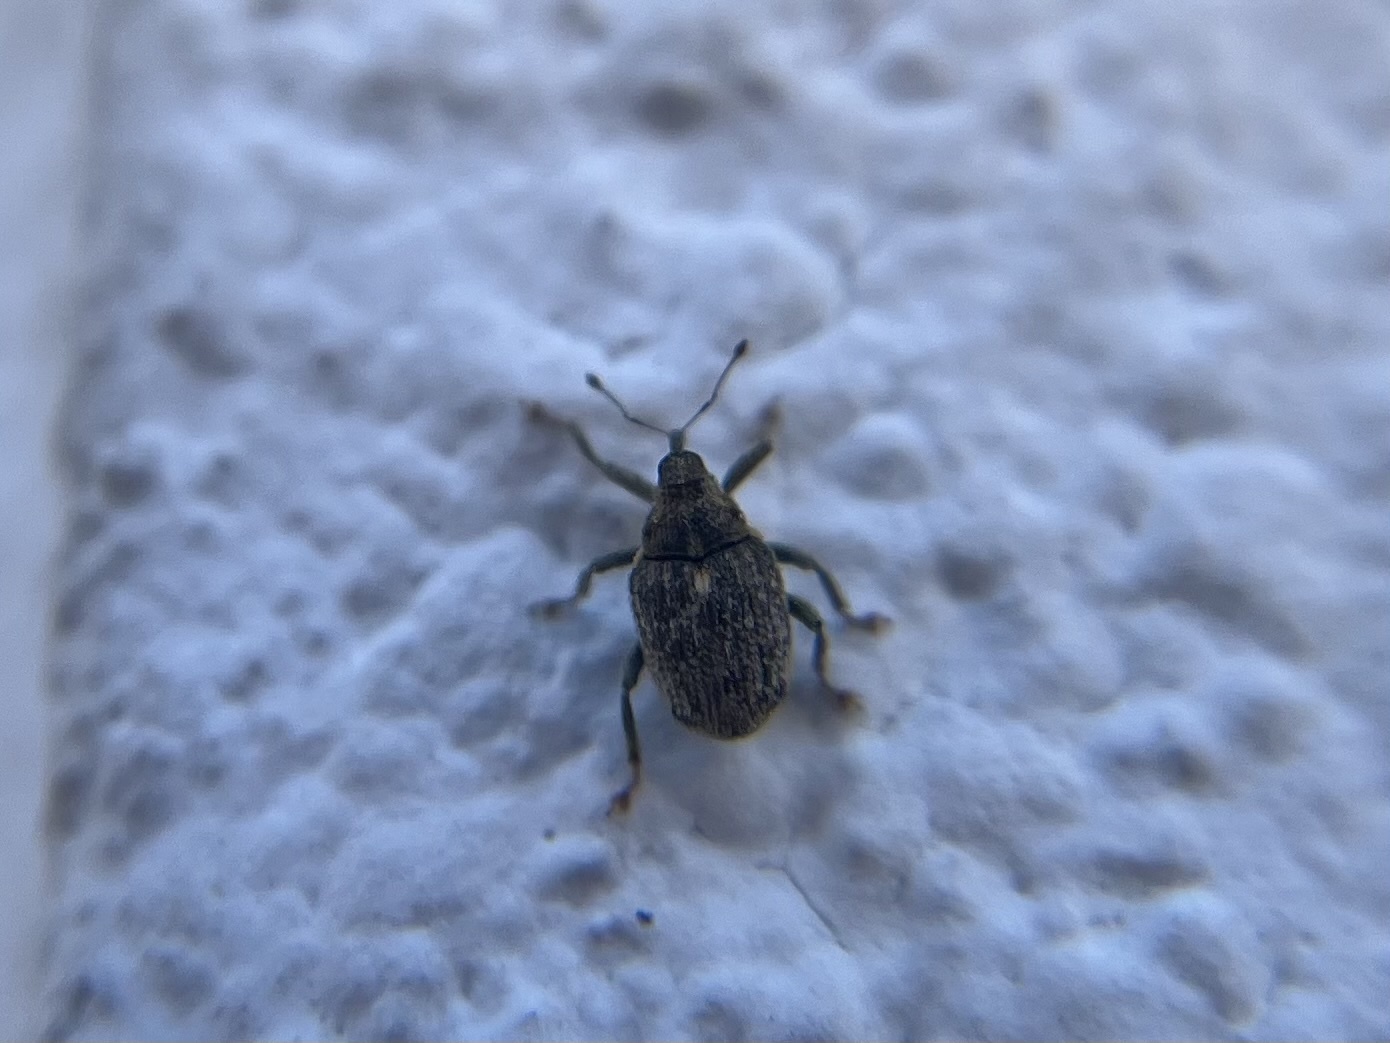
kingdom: Animalia
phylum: Arthropoda
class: Insecta
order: Coleoptera
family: Curculionidae
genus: Ceutorhynchus
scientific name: Ceutorhynchus pallidactylus
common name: Cabbage stem weavil
